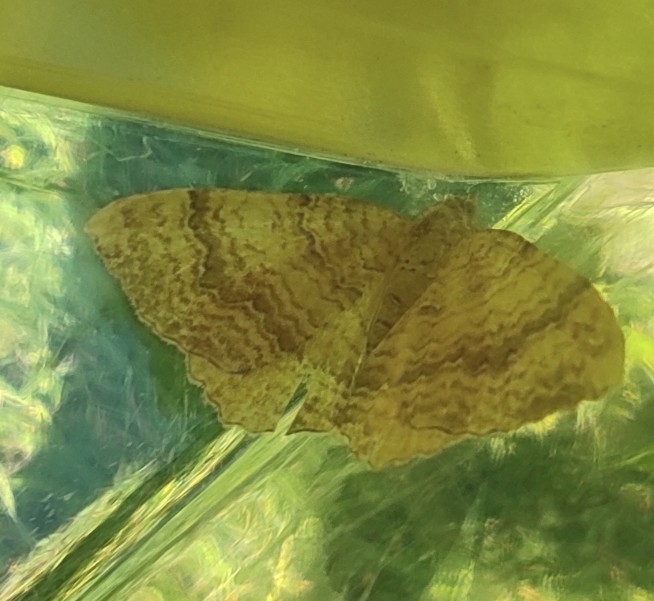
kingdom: Animalia
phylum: Arthropoda
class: Insecta
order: Lepidoptera
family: Geometridae
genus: Camptogramma
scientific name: Camptogramma bilineata
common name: Yellow shell
